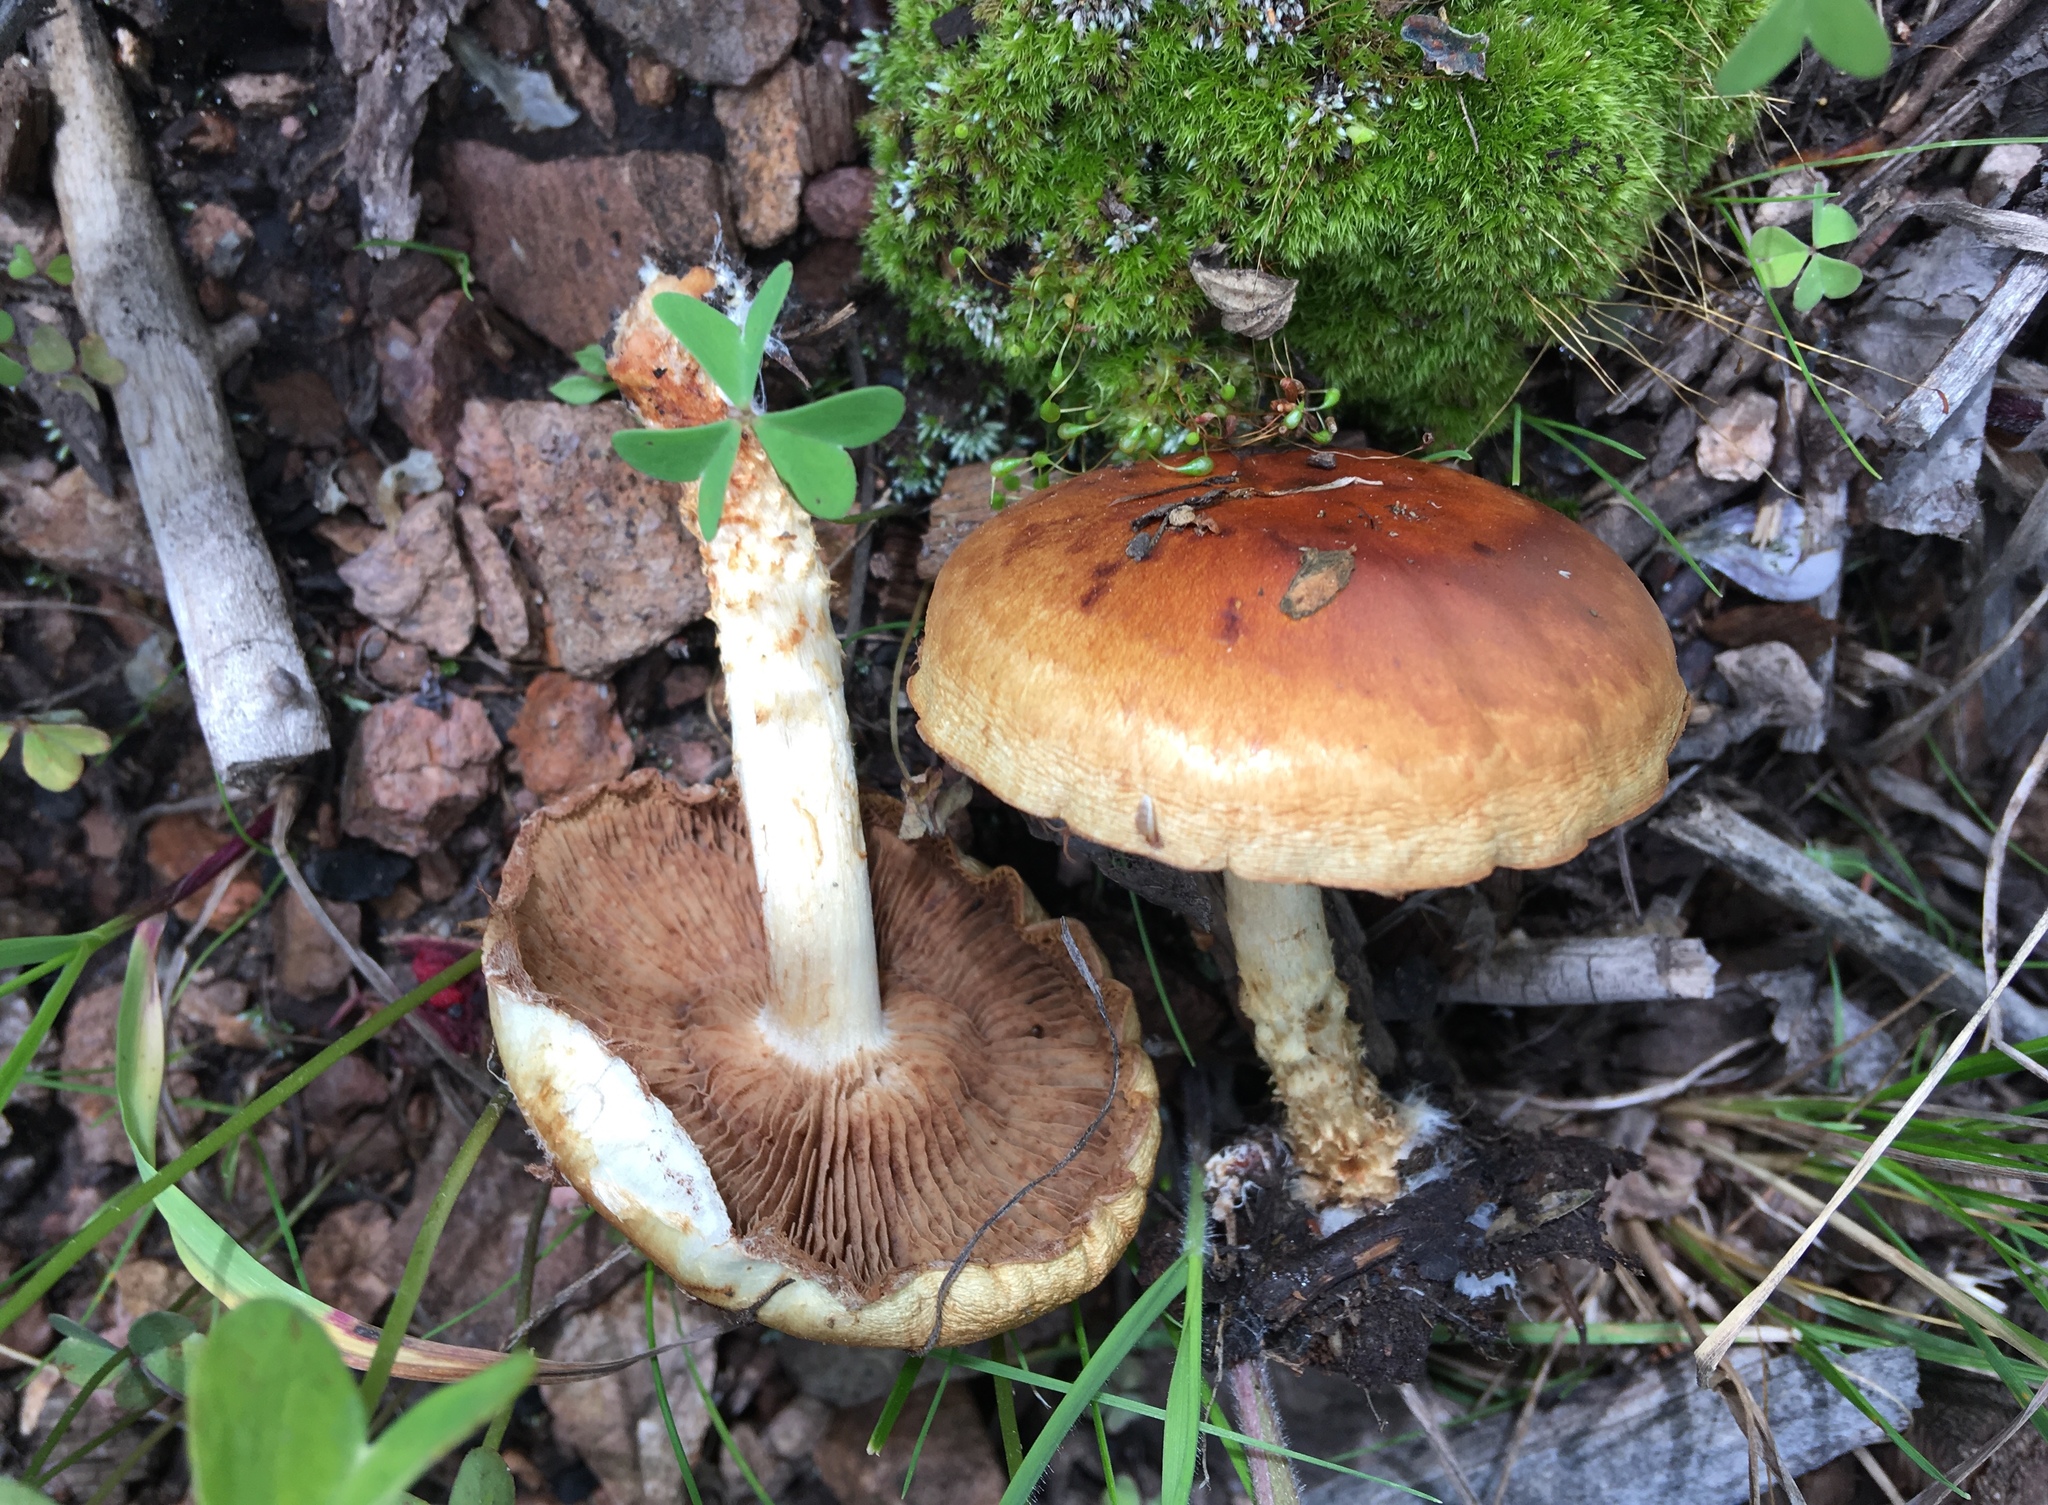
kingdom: Fungi
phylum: Basidiomycota
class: Agaricomycetes
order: Agaricales
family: Strophariaceae
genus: Pholiota
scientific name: Pholiota lubrica
